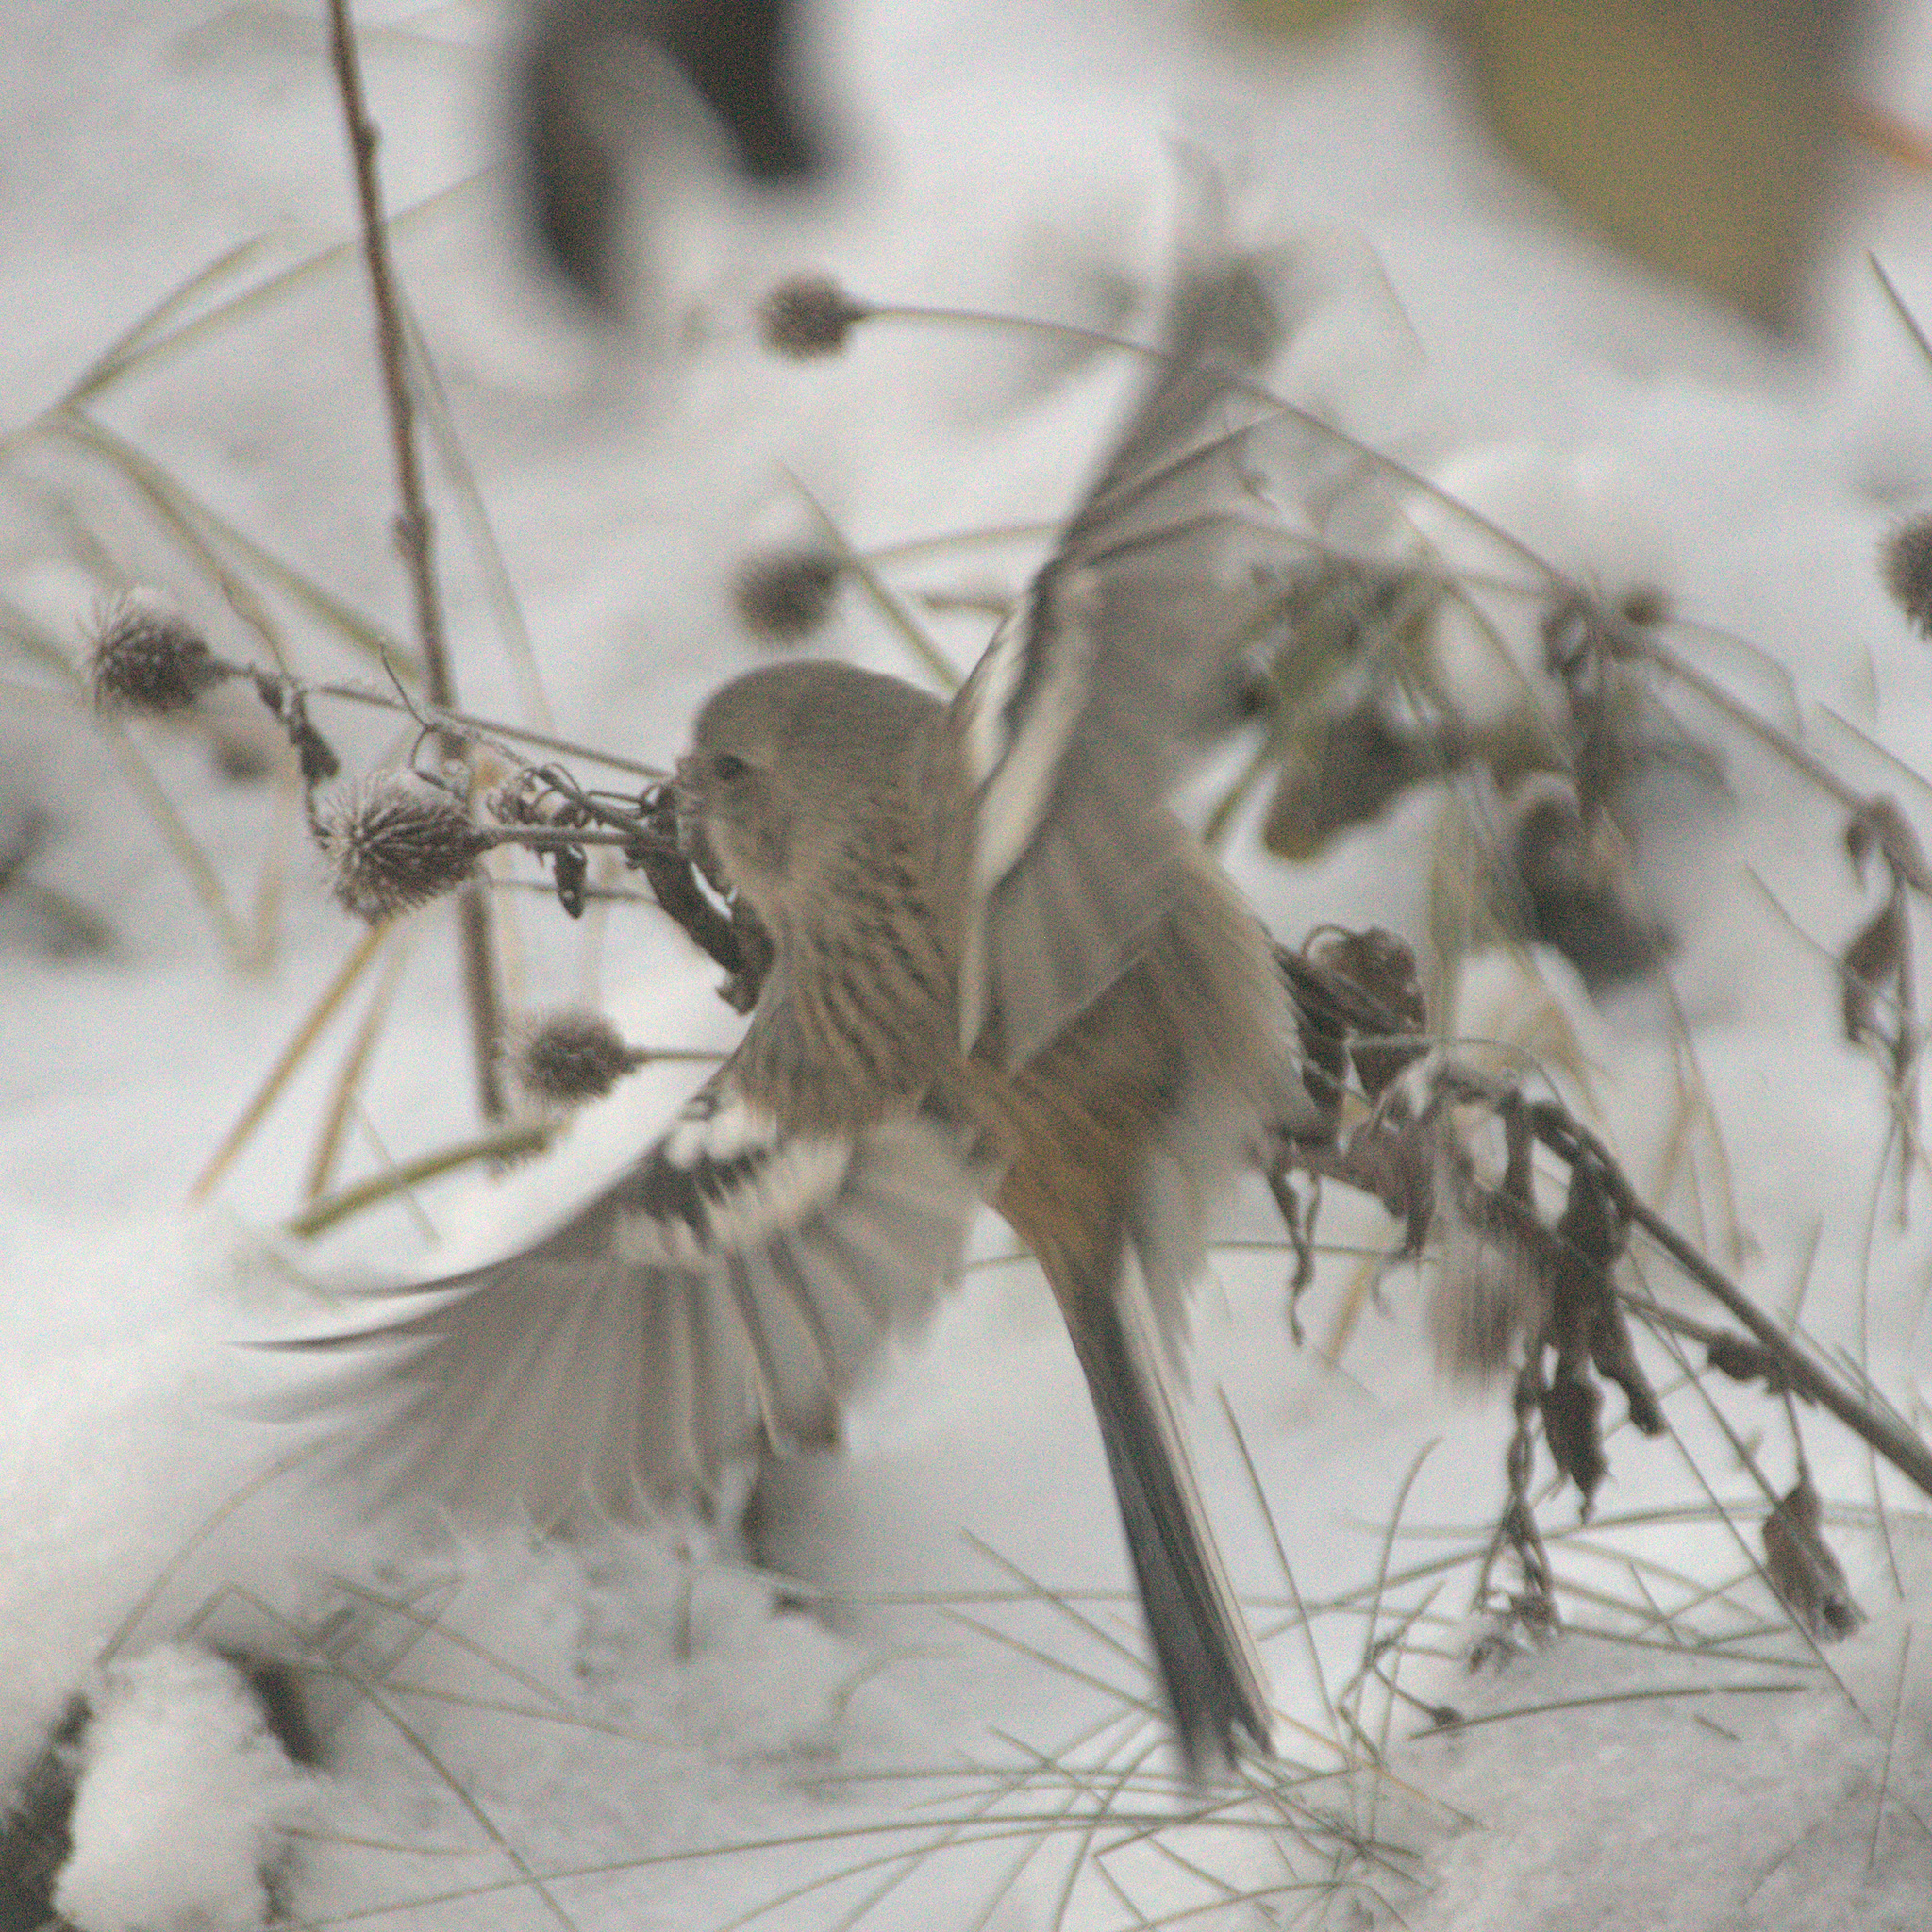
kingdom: Animalia
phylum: Chordata
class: Aves
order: Passeriformes
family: Fringillidae
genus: Carpodacus
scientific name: Carpodacus sibiricus
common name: Long-tailed rosefinch
